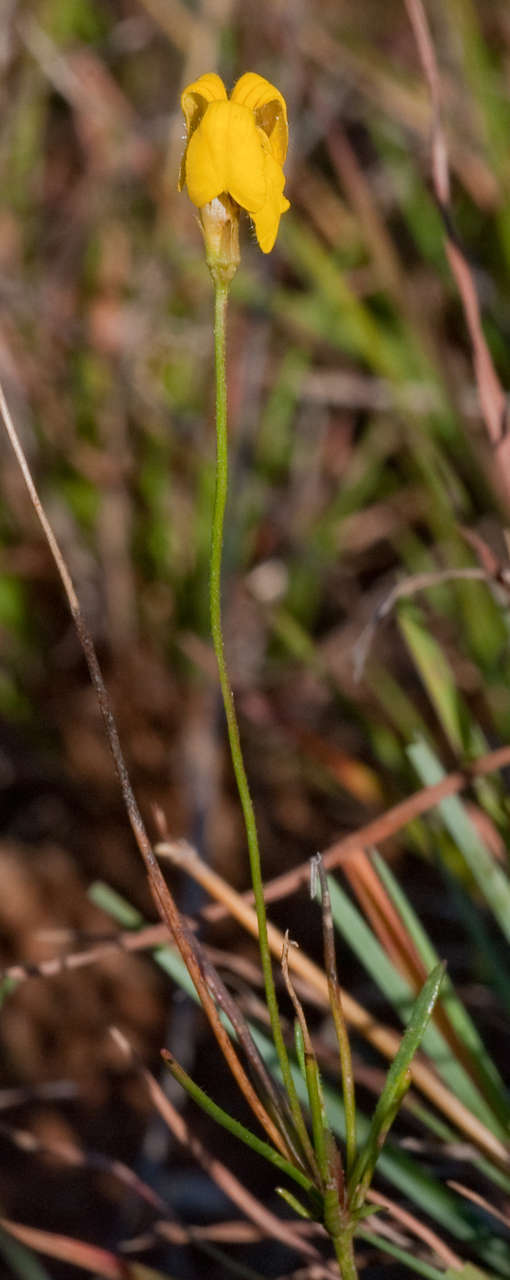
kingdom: Plantae
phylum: Tracheophyta
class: Magnoliopsida
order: Asterales
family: Goodeniaceae
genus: Goodenia
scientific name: Goodenia pinnatifida
